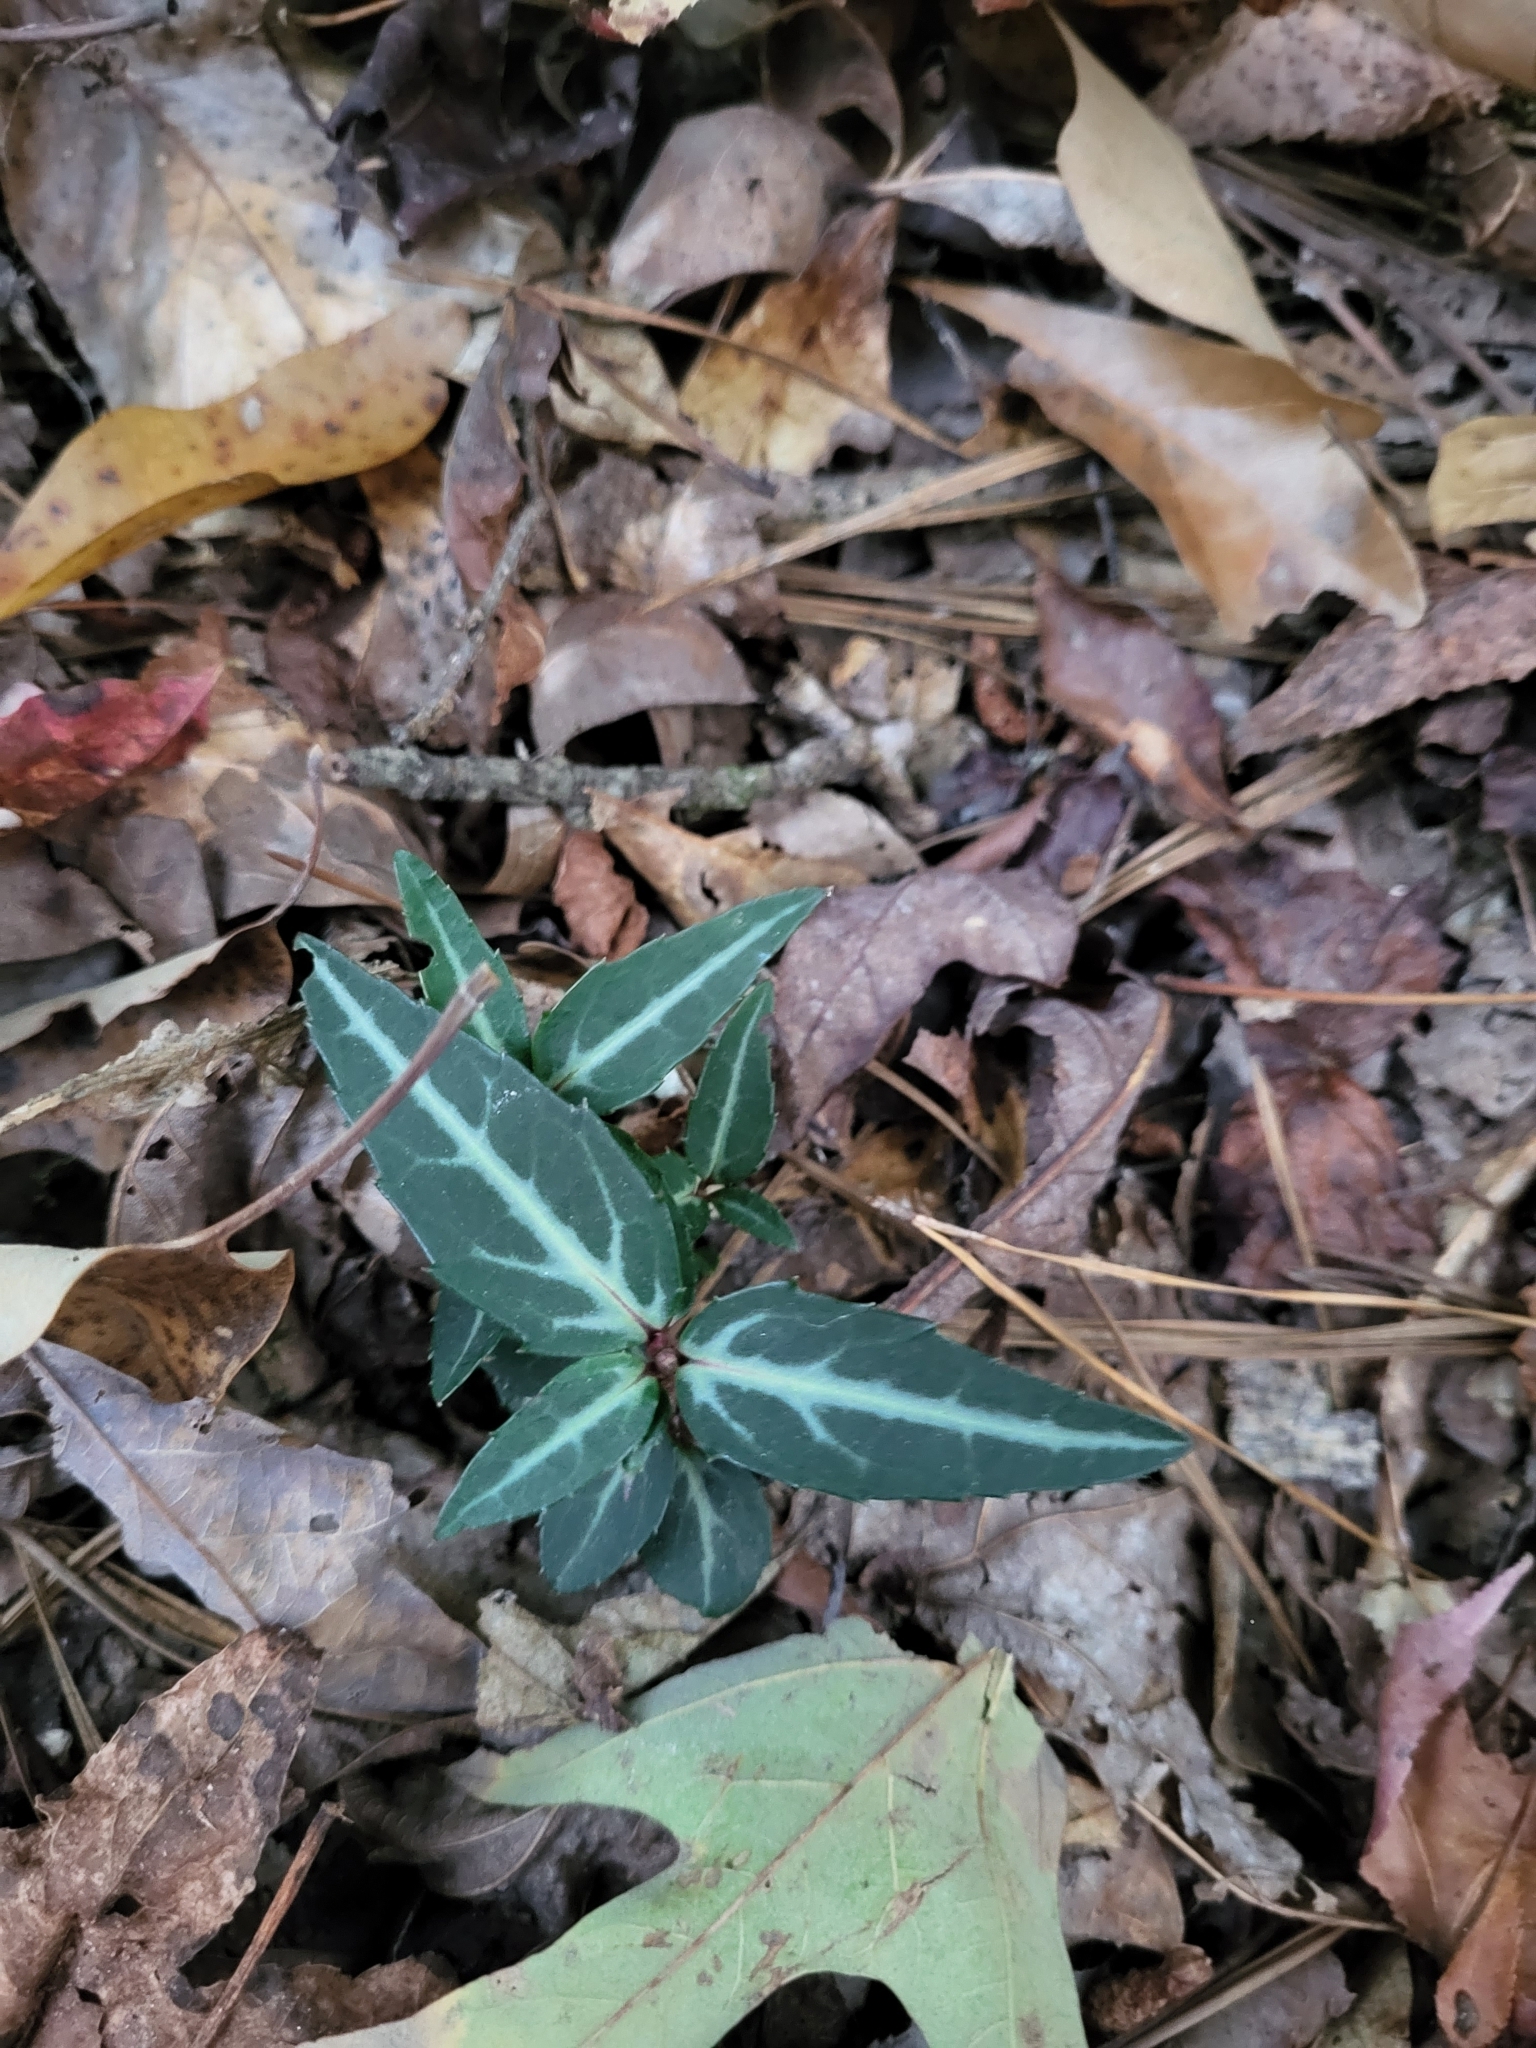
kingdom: Plantae
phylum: Tracheophyta
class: Magnoliopsida
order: Ericales
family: Ericaceae
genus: Chimaphila
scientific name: Chimaphila maculata
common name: Spotted pipsissewa
